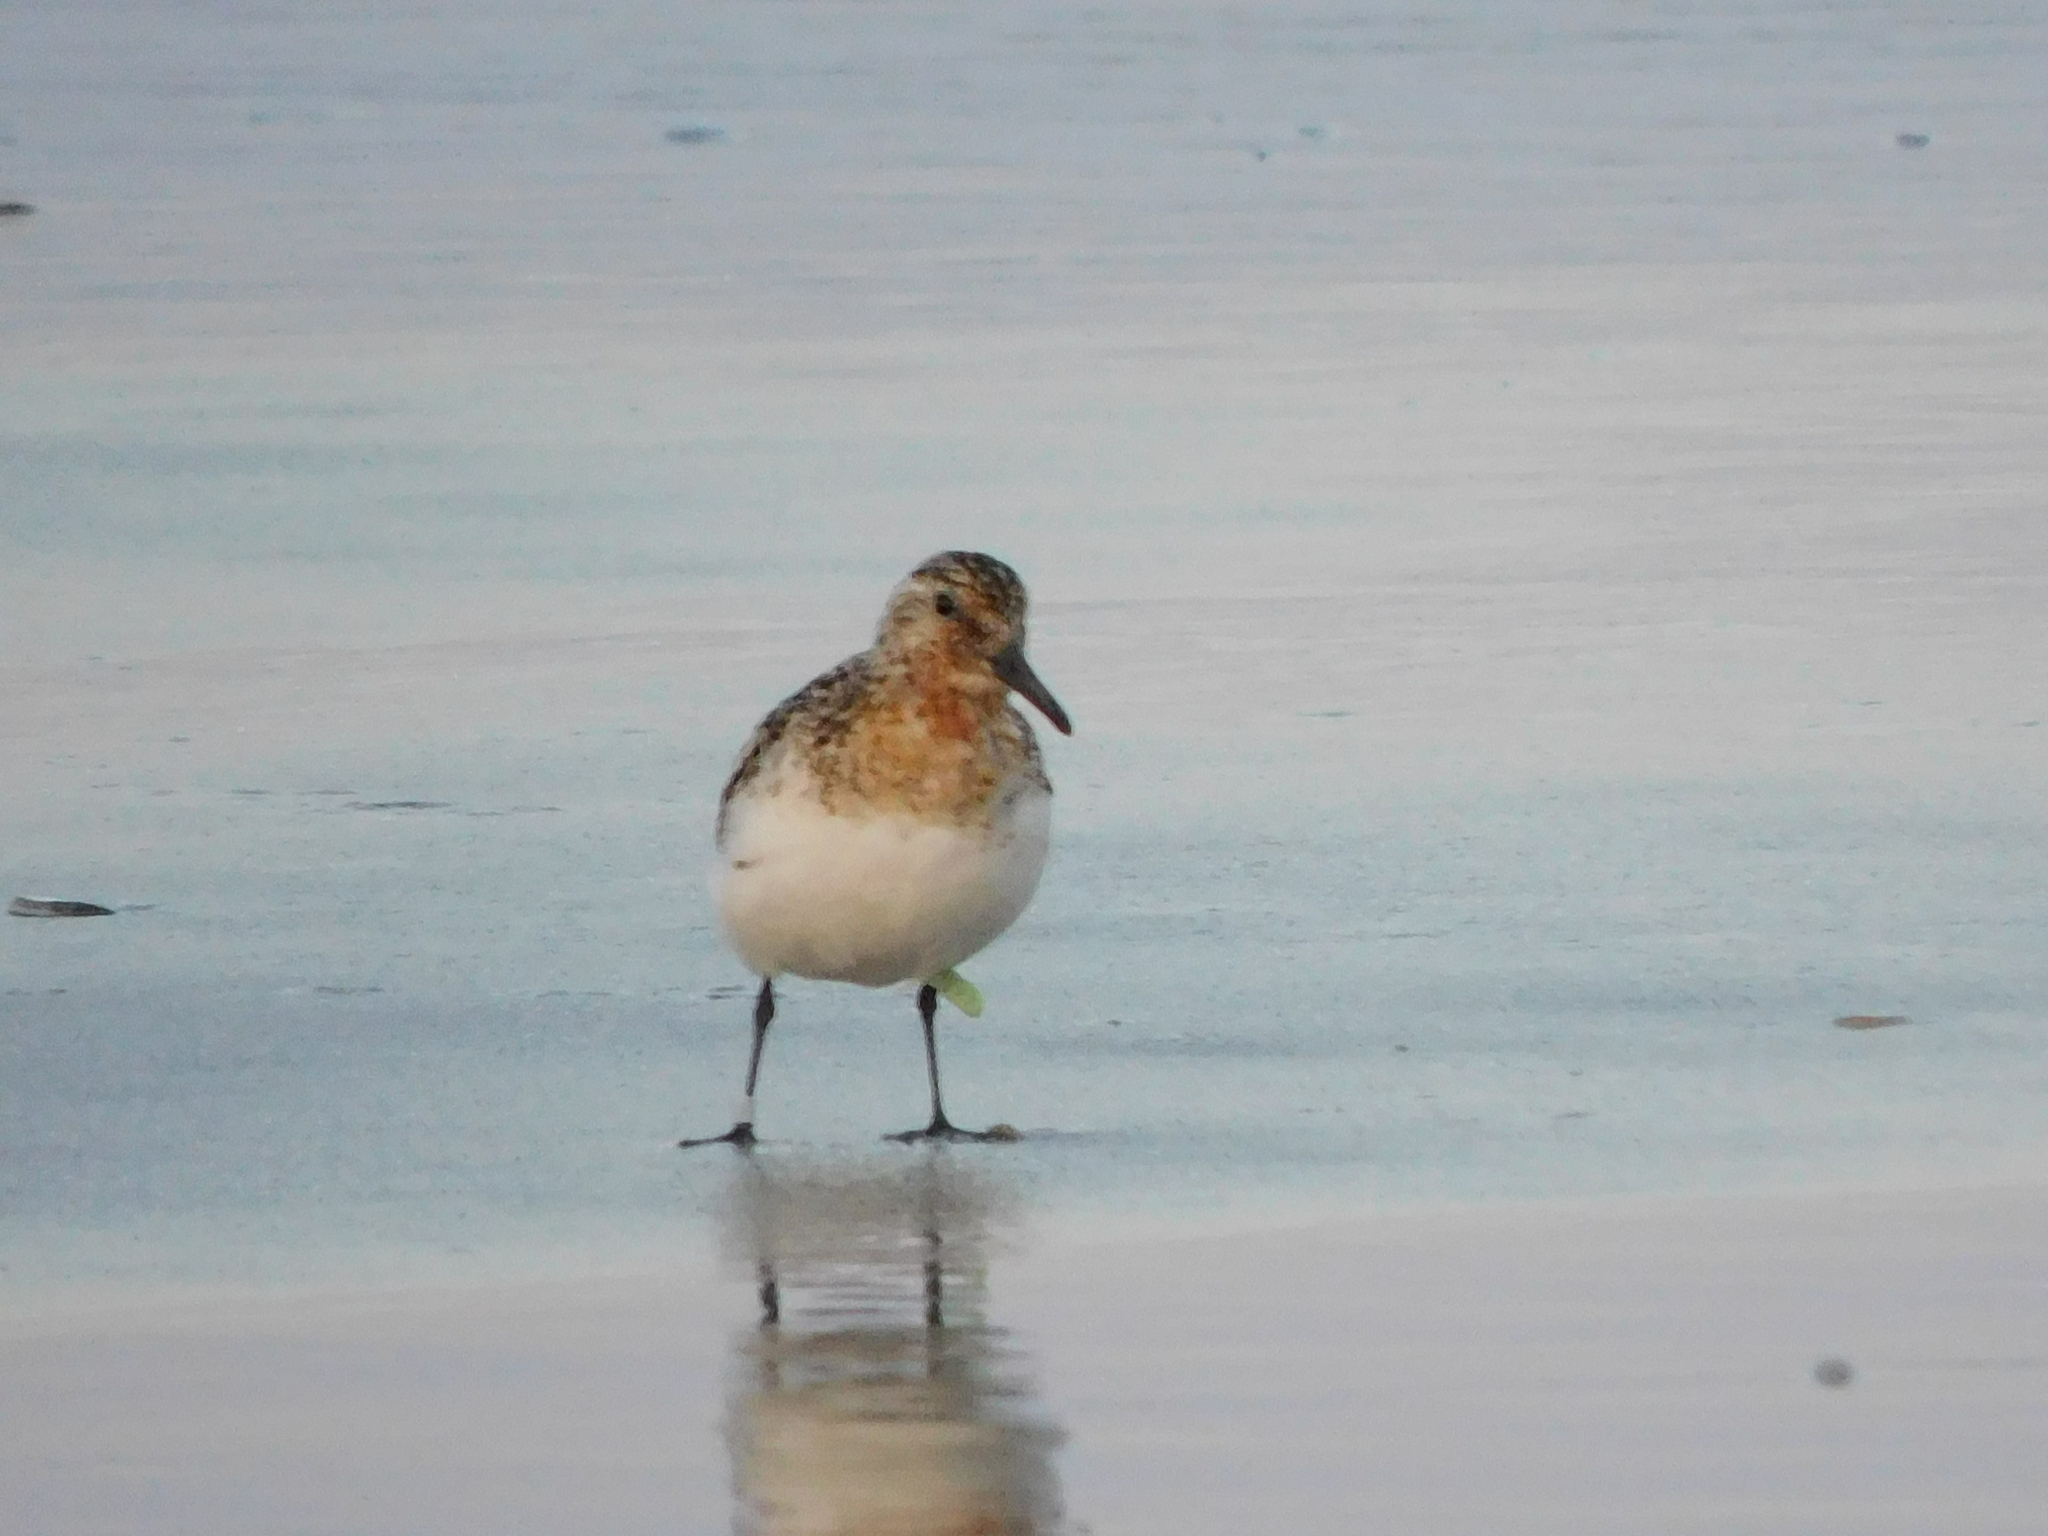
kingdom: Animalia
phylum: Chordata
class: Aves
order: Charadriiformes
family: Scolopacidae
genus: Calidris
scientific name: Calidris alba
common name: Sanderling
